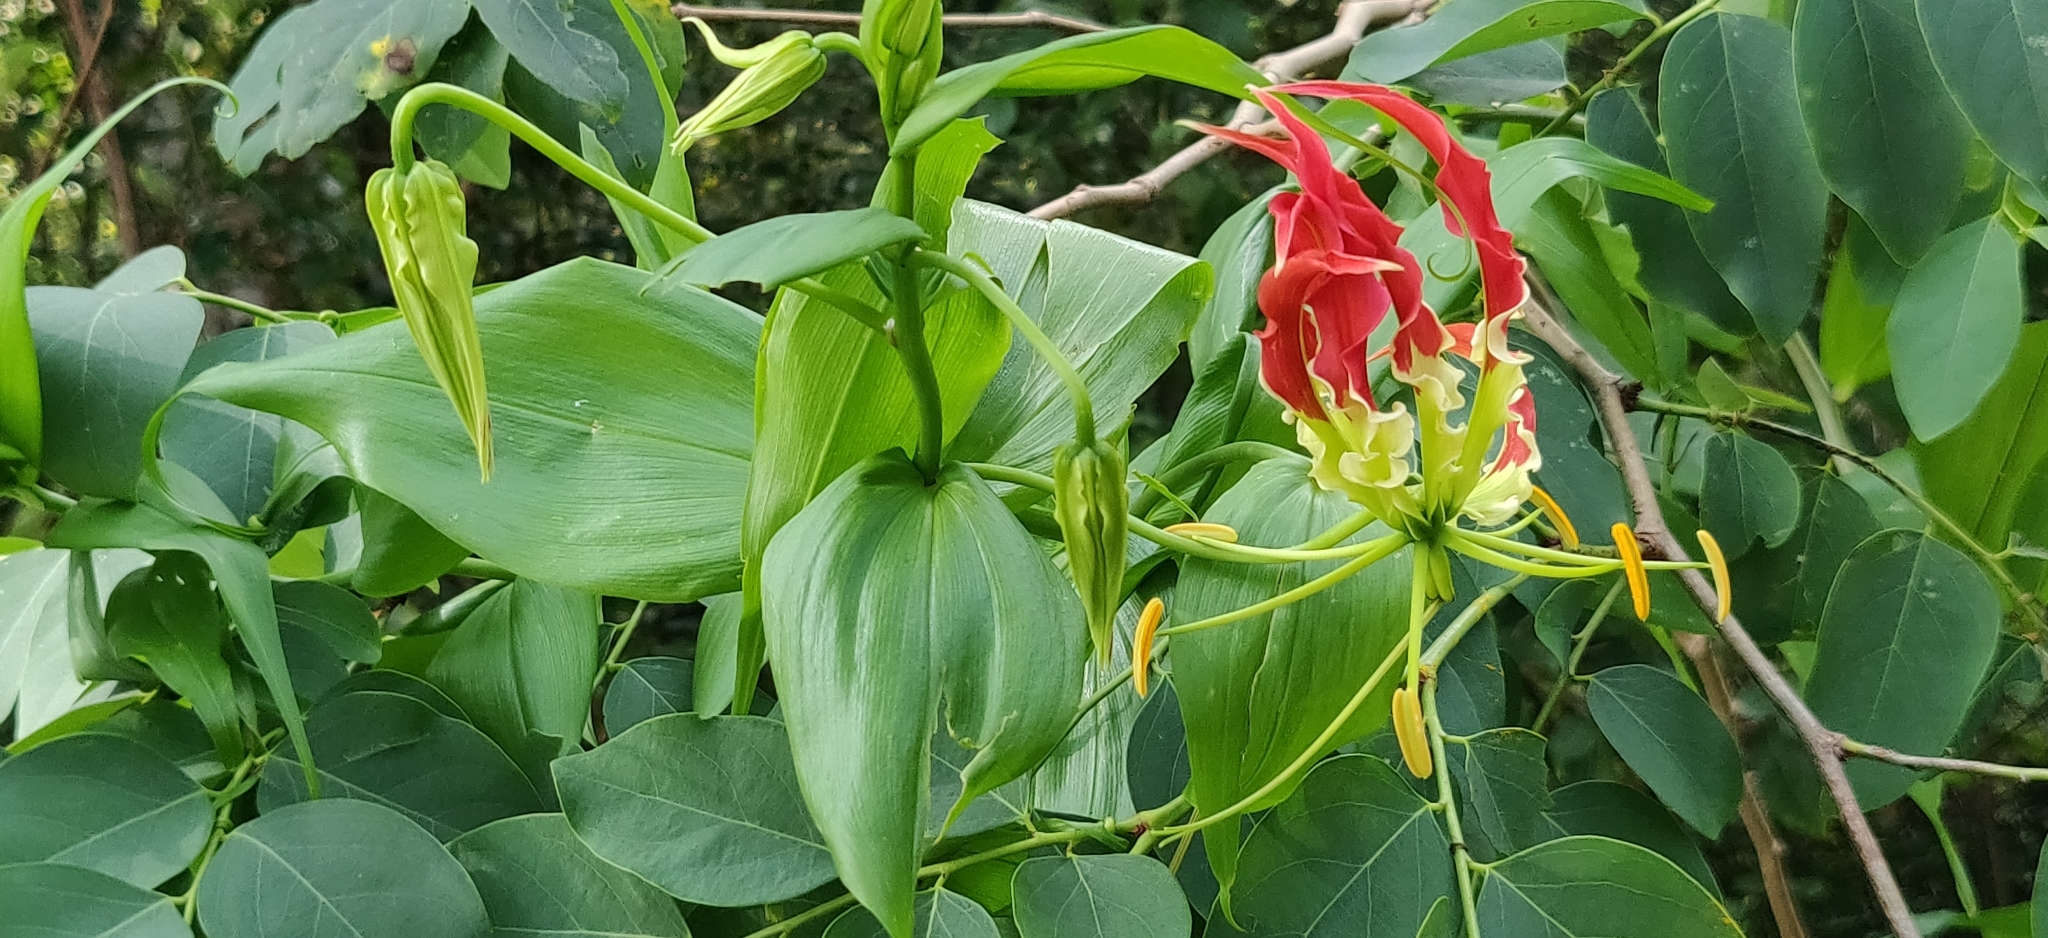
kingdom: Plantae
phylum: Tracheophyta
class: Liliopsida
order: Liliales
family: Colchicaceae
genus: Gloriosa
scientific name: Gloriosa superba
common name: Flame lily
